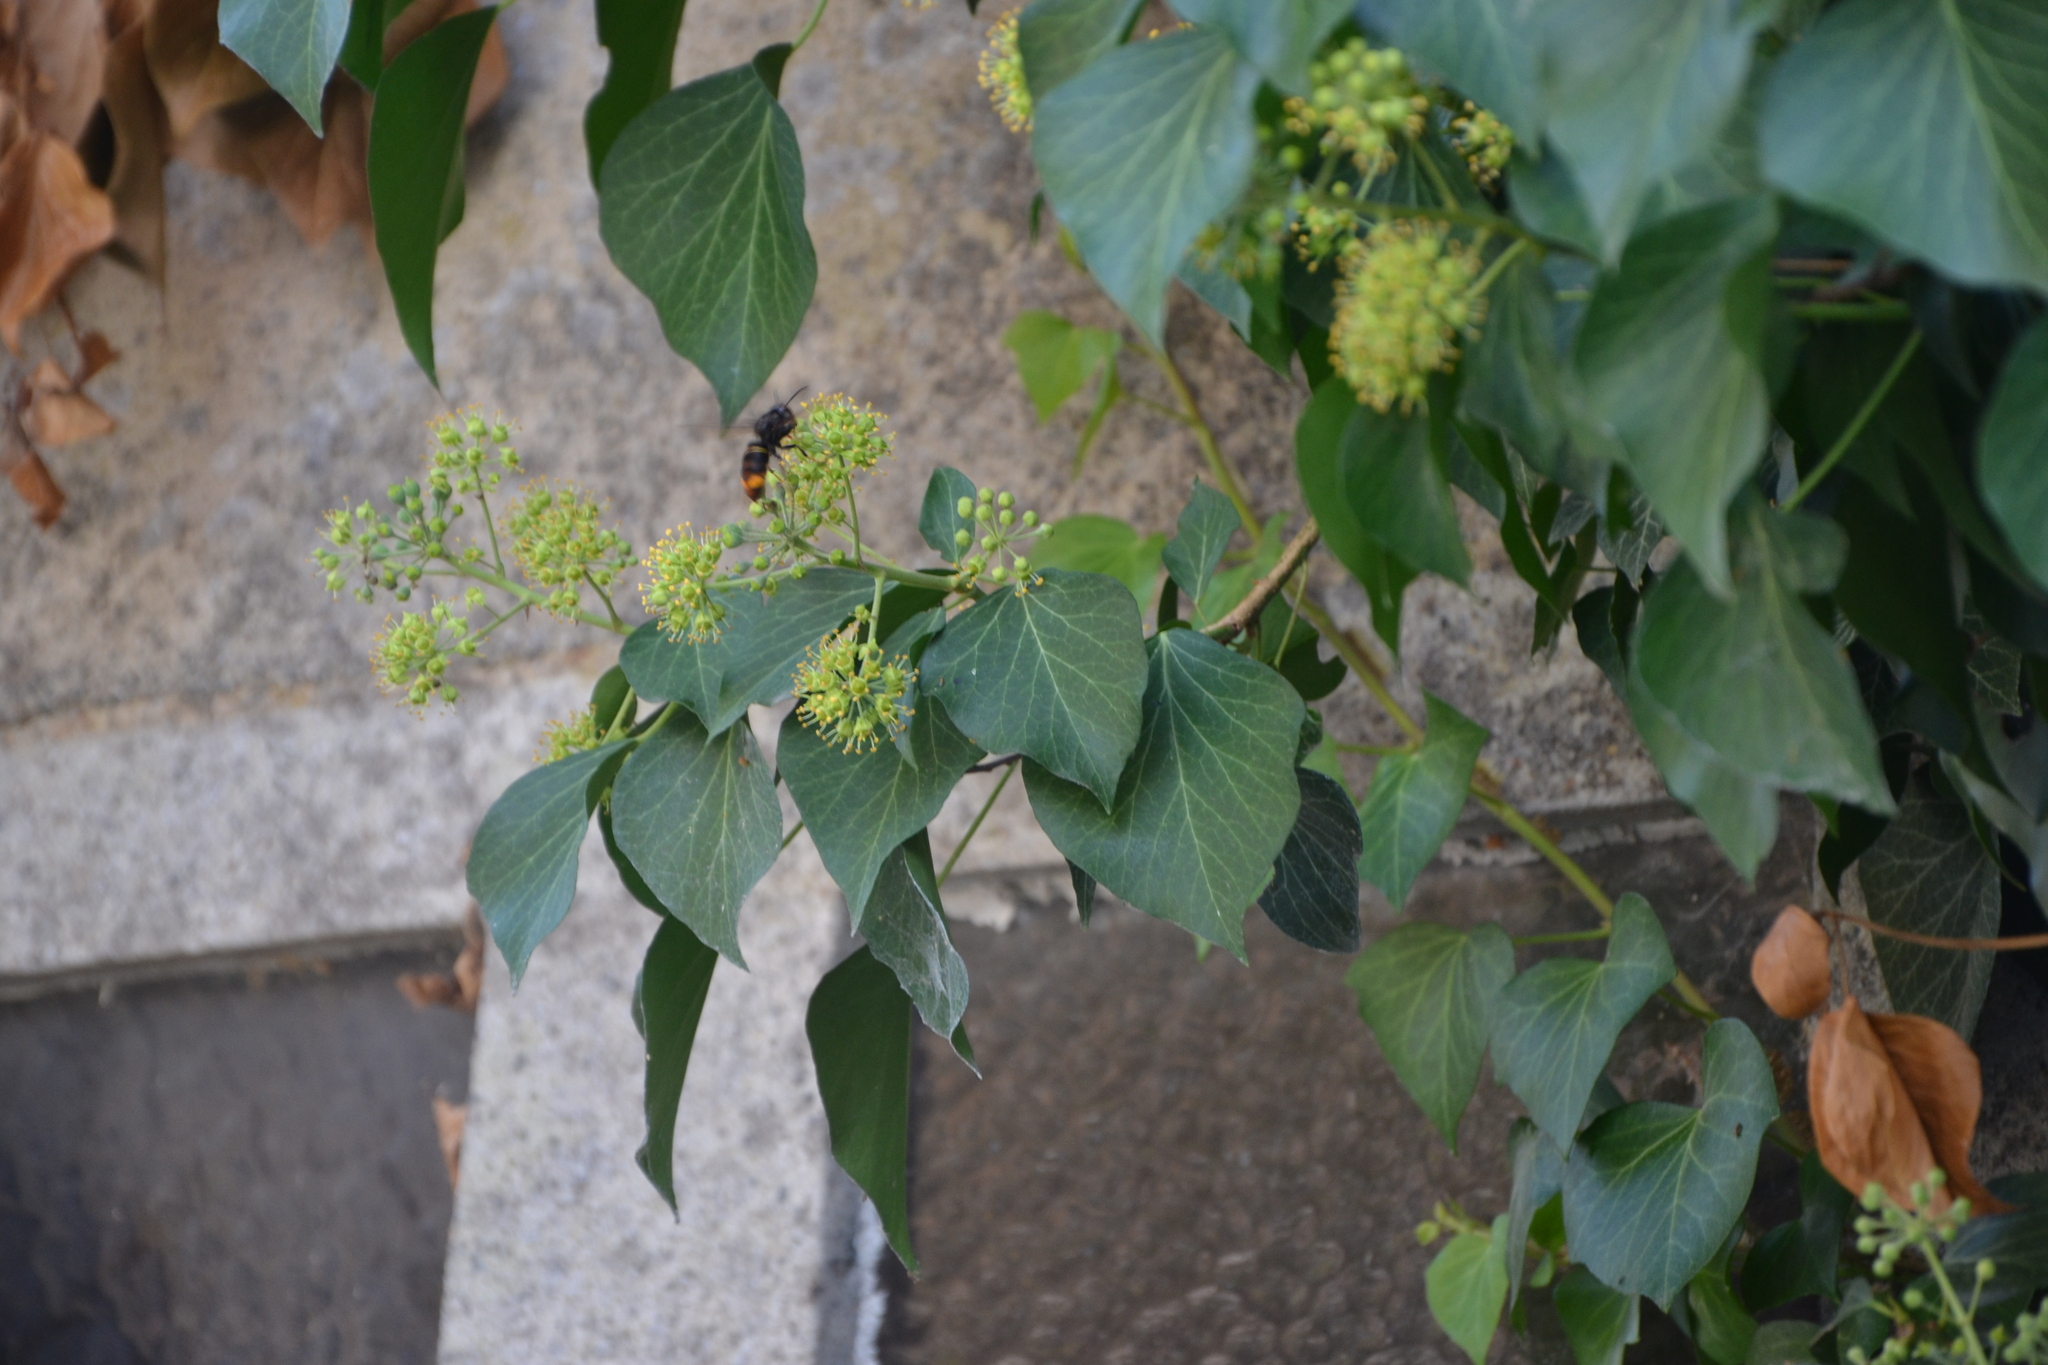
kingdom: Animalia
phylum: Arthropoda
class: Insecta
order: Hymenoptera
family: Vespidae
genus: Vespa
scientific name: Vespa velutina
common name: Asian hornet
